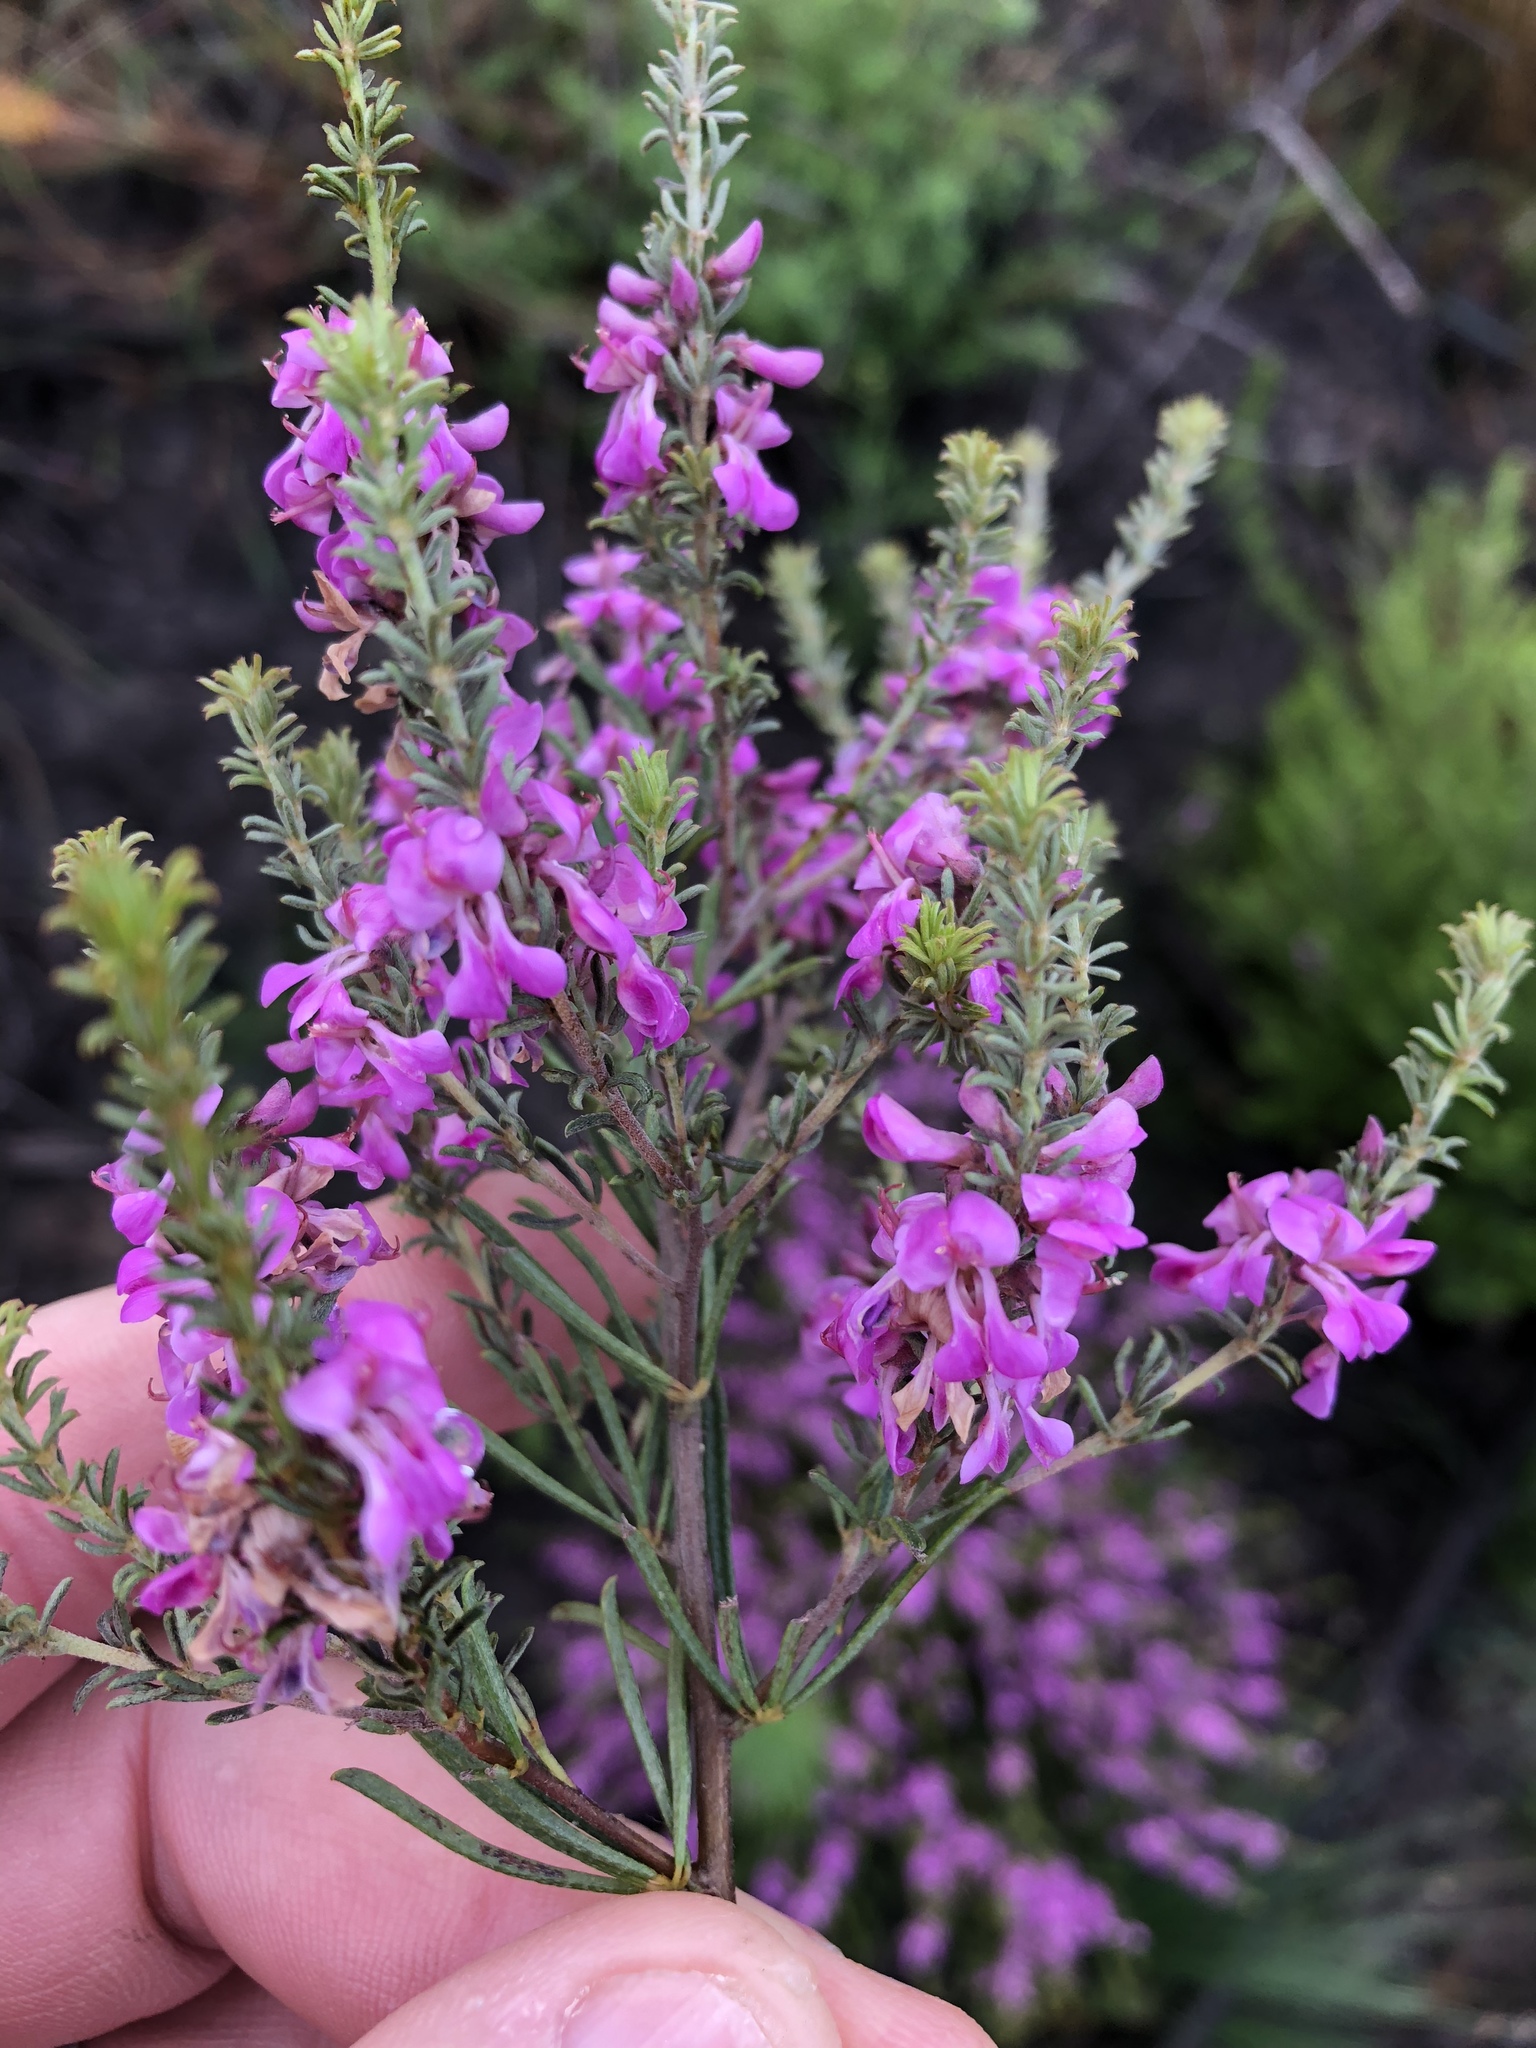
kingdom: Plantae
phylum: Tracheophyta
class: Magnoliopsida
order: Fabales
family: Fabaceae
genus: Indigofera
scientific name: Indigofera pappei
